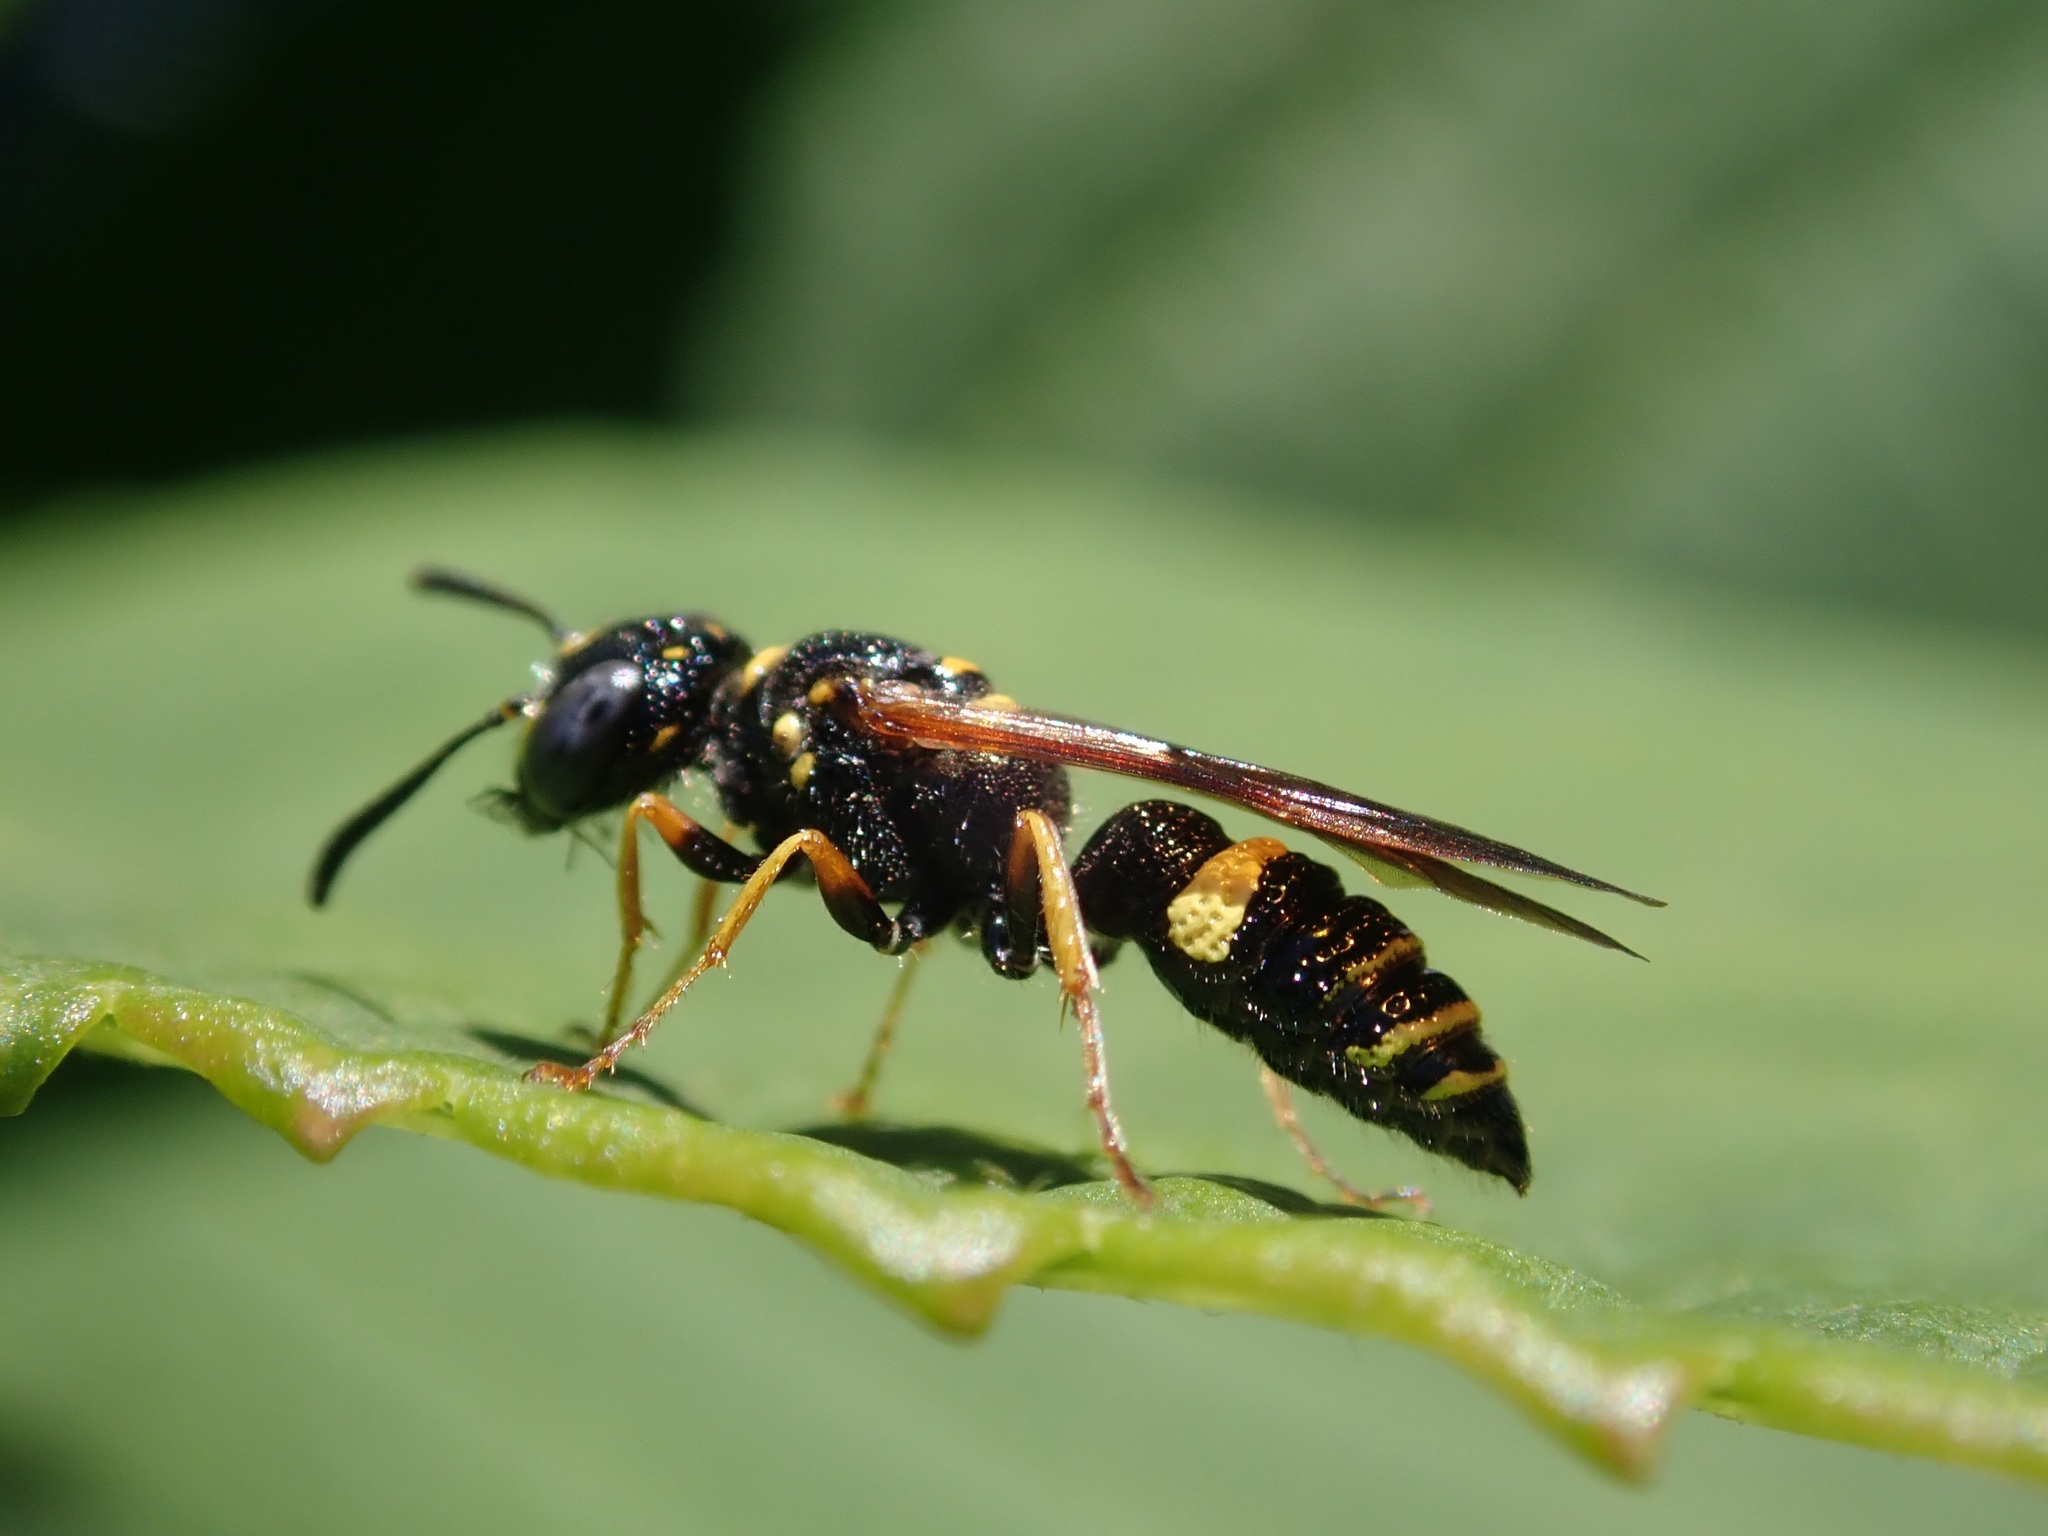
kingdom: Animalia
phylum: Arthropoda
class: Insecta
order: Hymenoptera
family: Crabronidae
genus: Philanthus
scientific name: Philanthus gibbosus
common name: Humped beewolf
